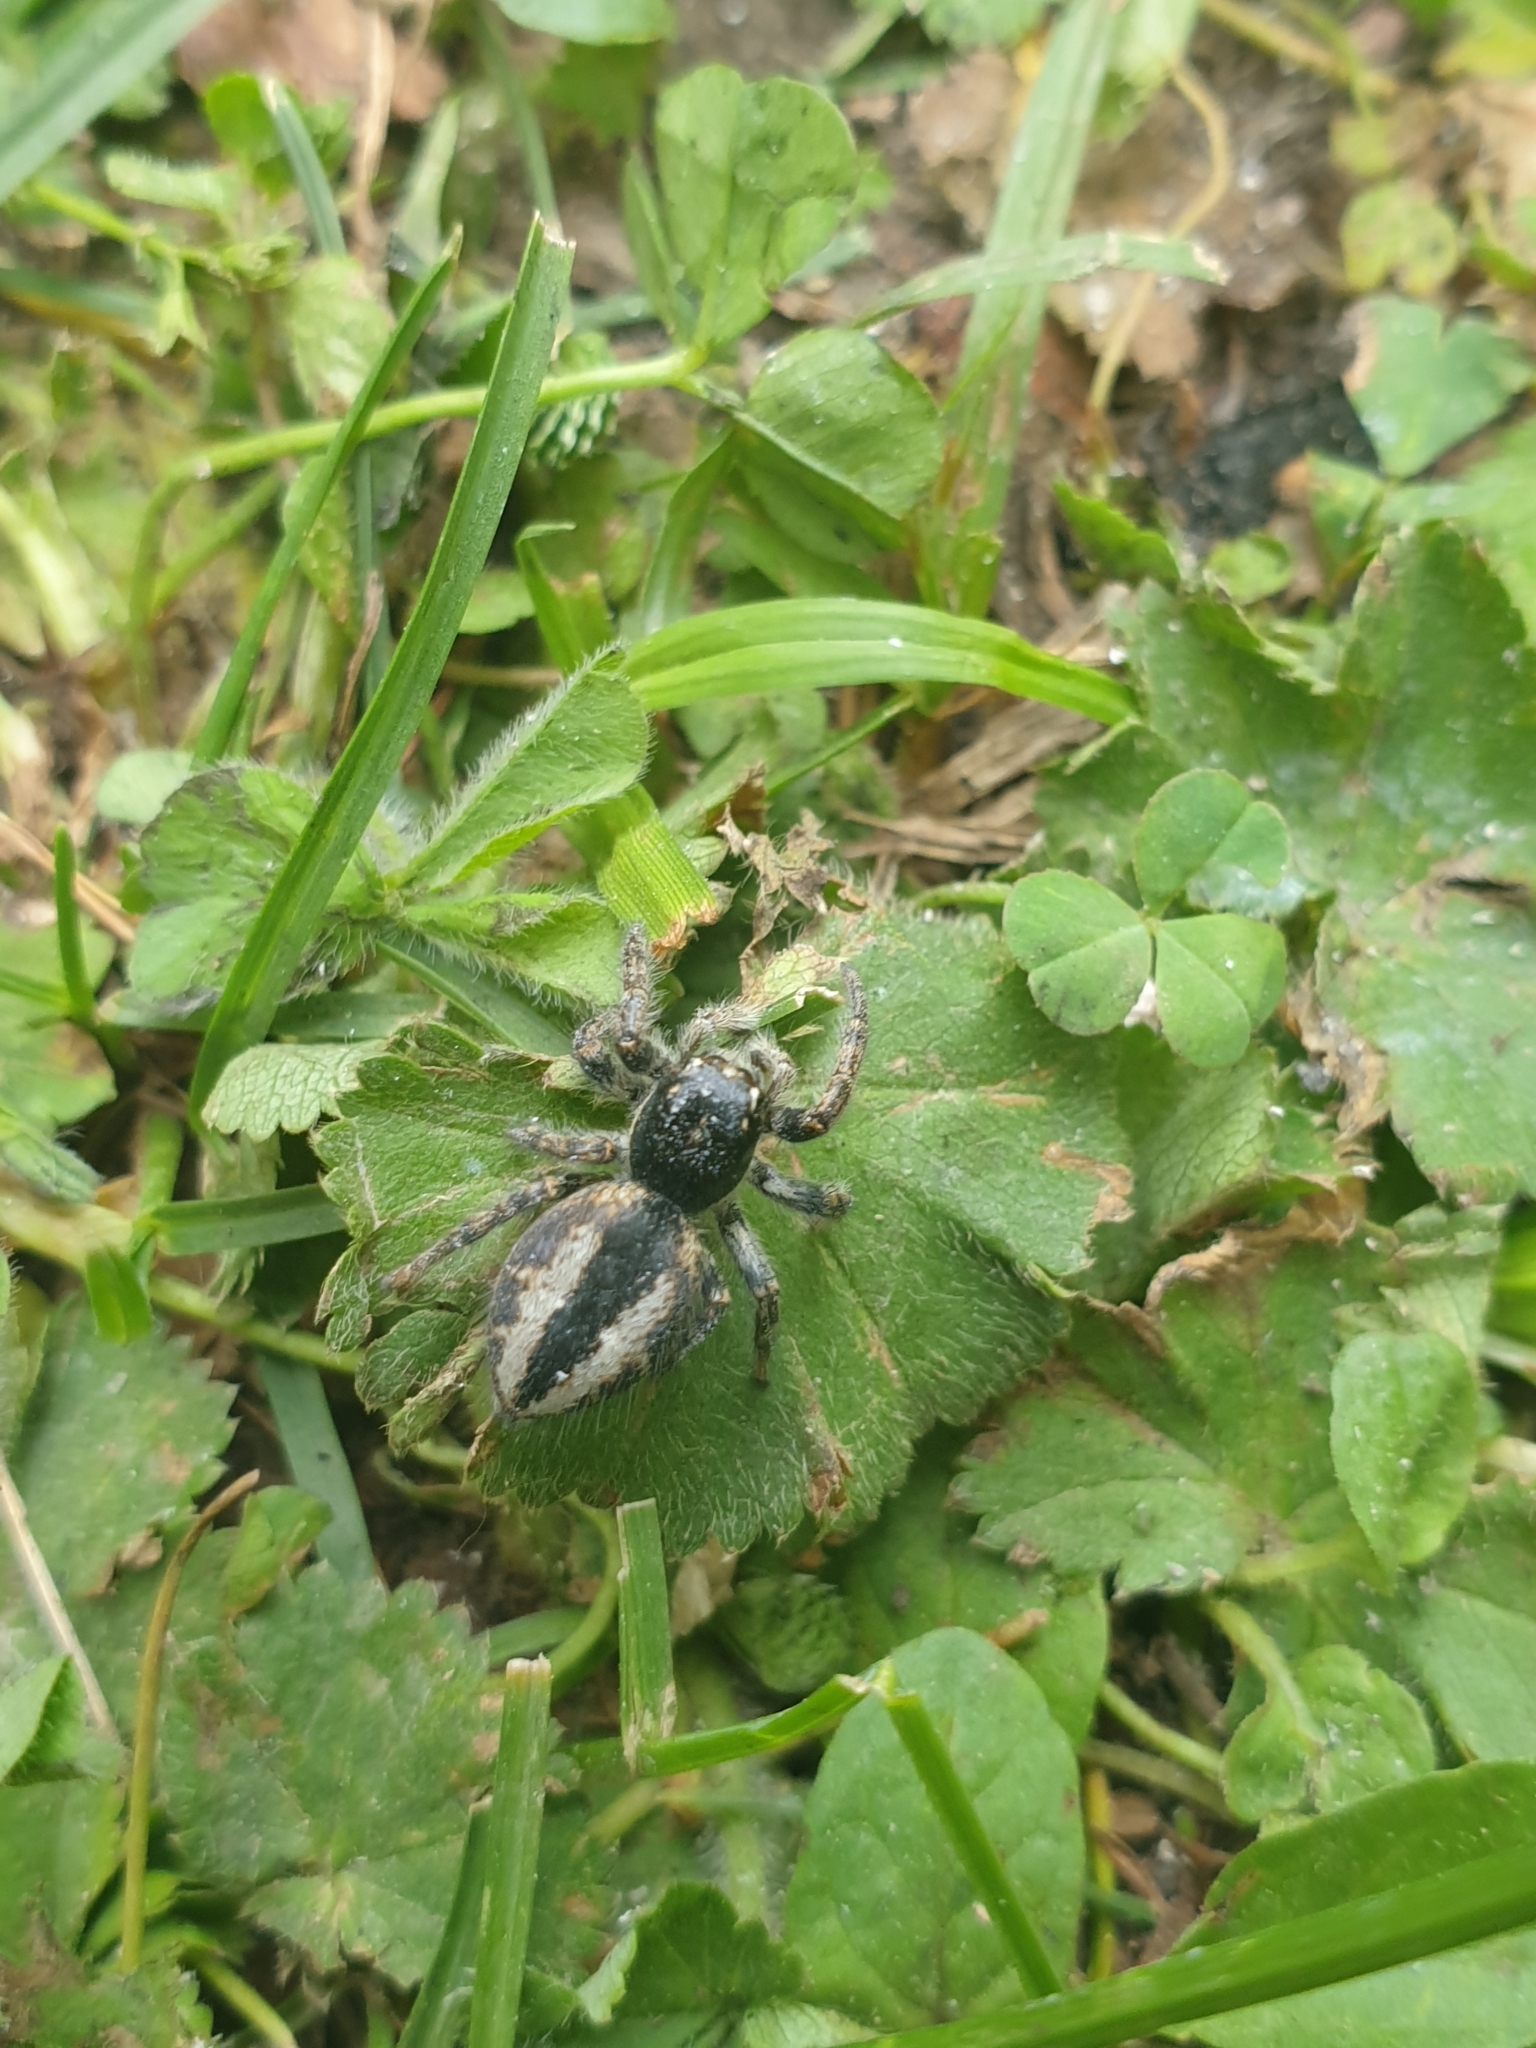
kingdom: Animalia
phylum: Arthropoda
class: Arachnida
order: Araneae
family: Salticidae
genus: Philaeus
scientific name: Philaeus chrysops
